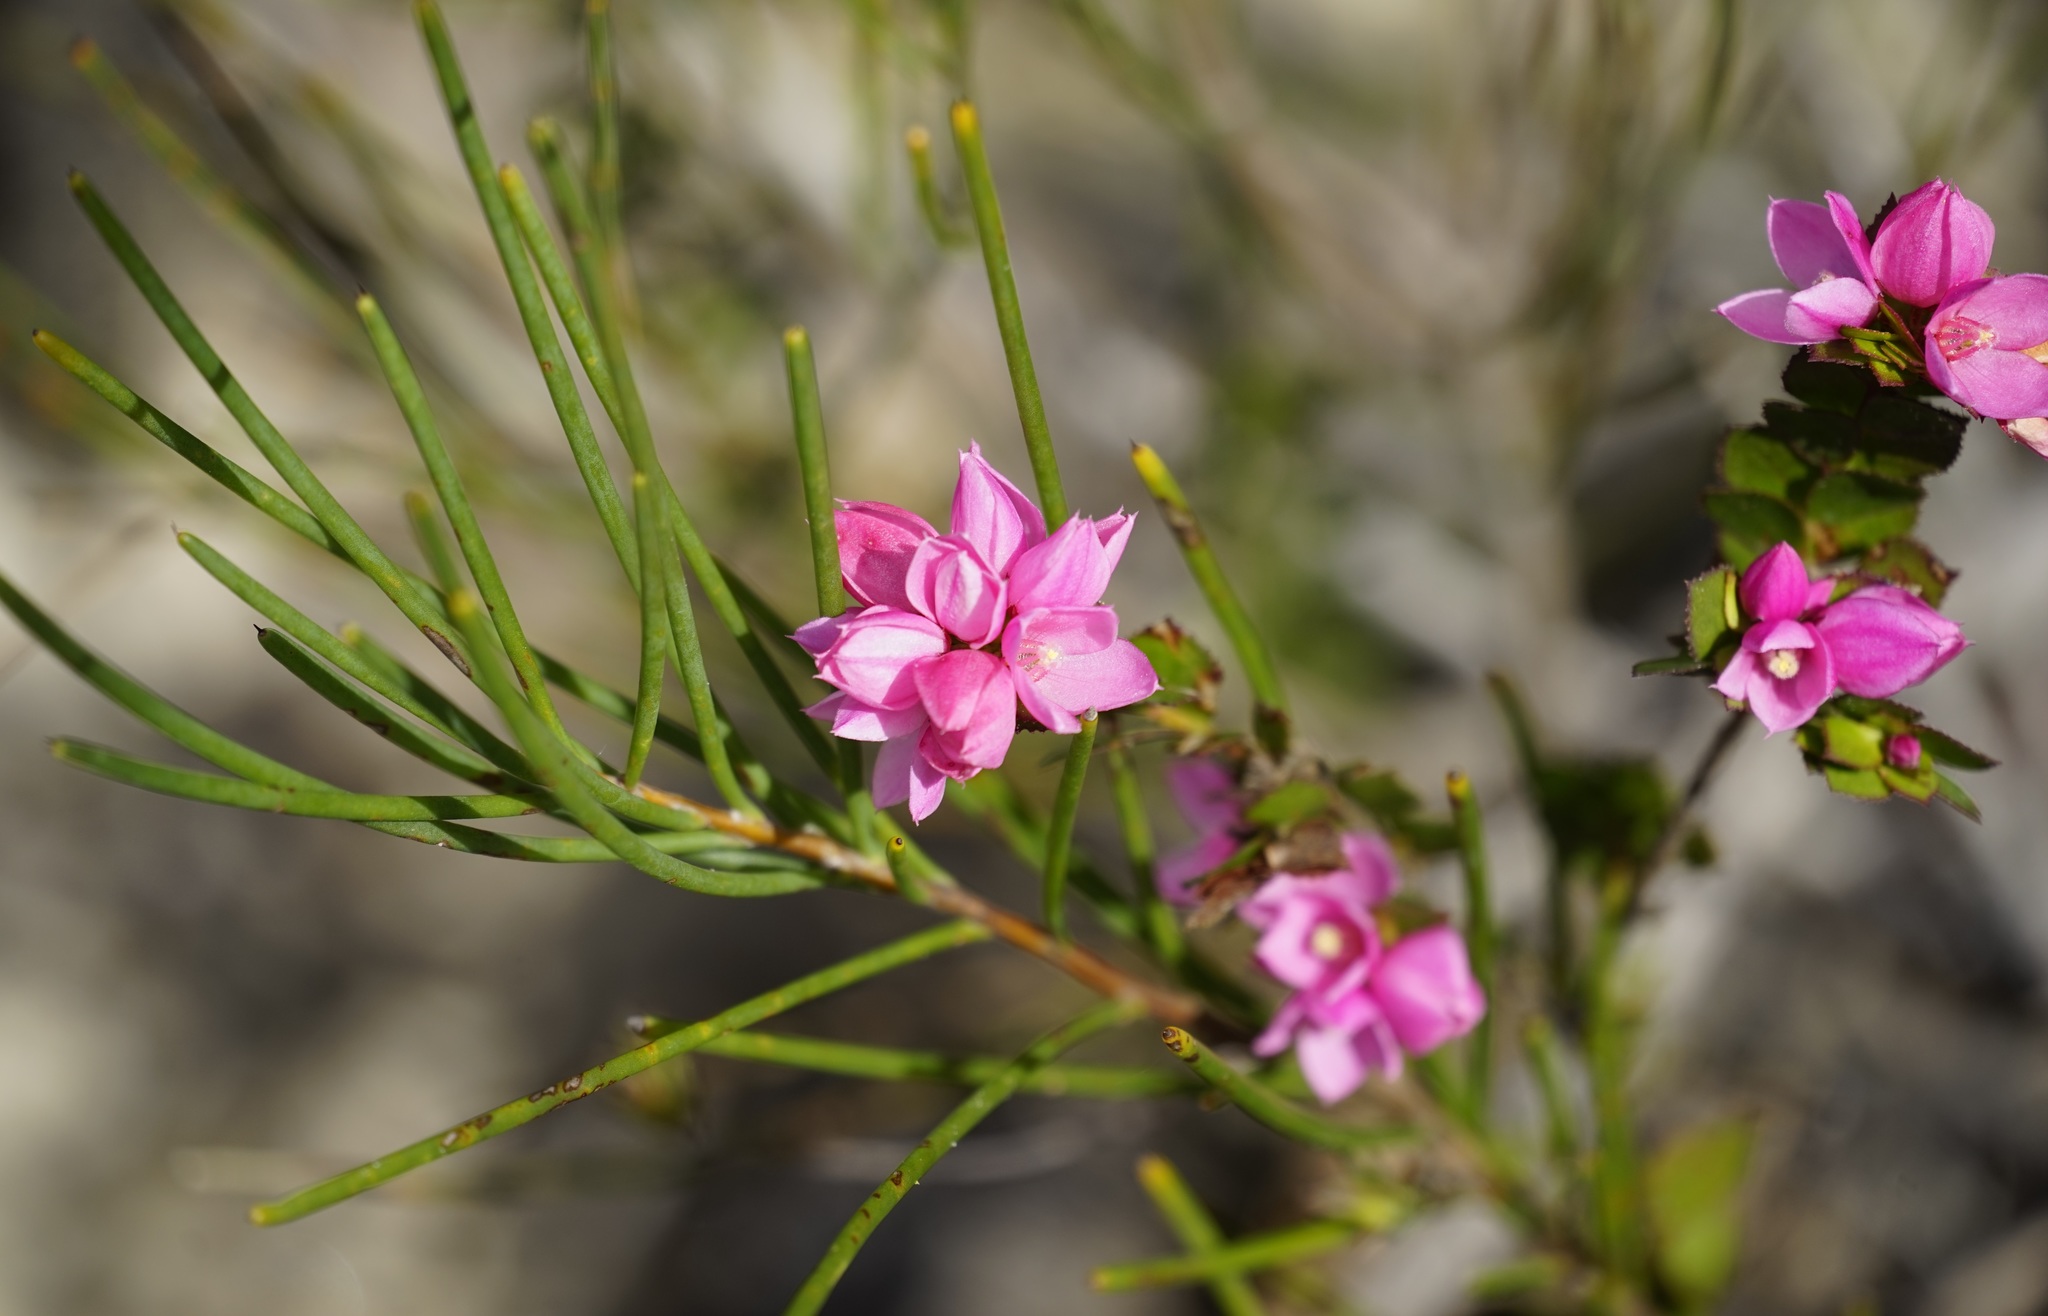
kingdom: Plantae
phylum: Tracheophyta
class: Magnoliopsida
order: Sapindales
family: Rutaceae
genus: Boronia
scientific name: Boronia serrulata
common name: Rose boronia
